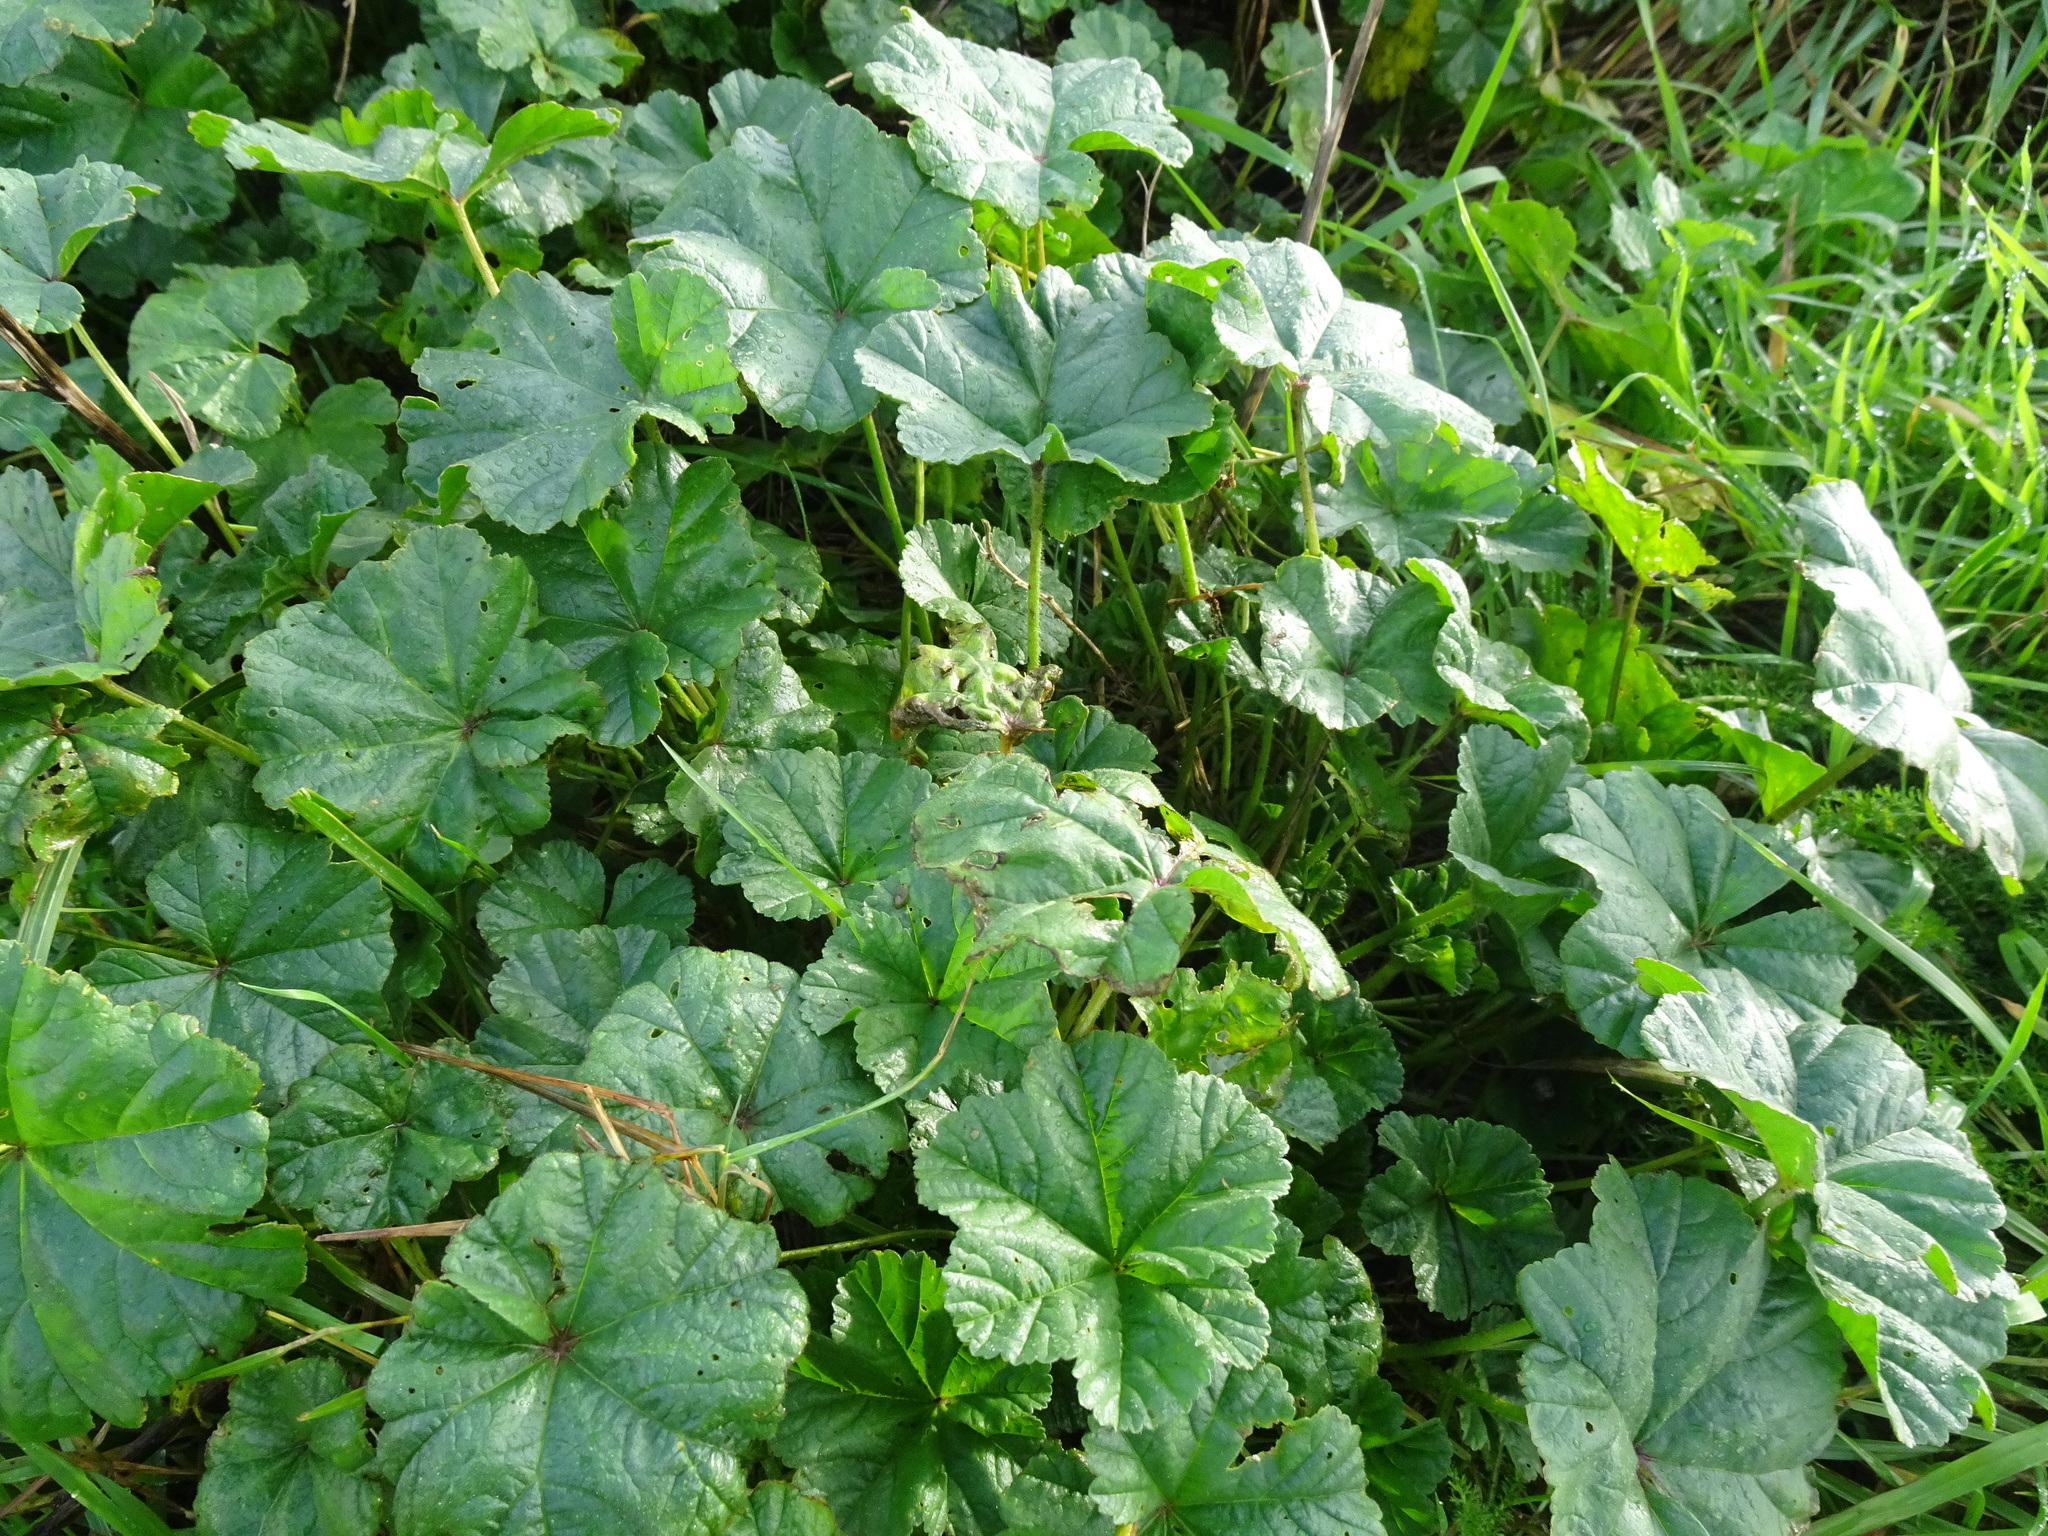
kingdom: Plantae
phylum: Tracheophyta
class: Magnoliopsida
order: Malvales
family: Malvaceae
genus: Malva
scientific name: Malva sylvestris
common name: Common mallow
